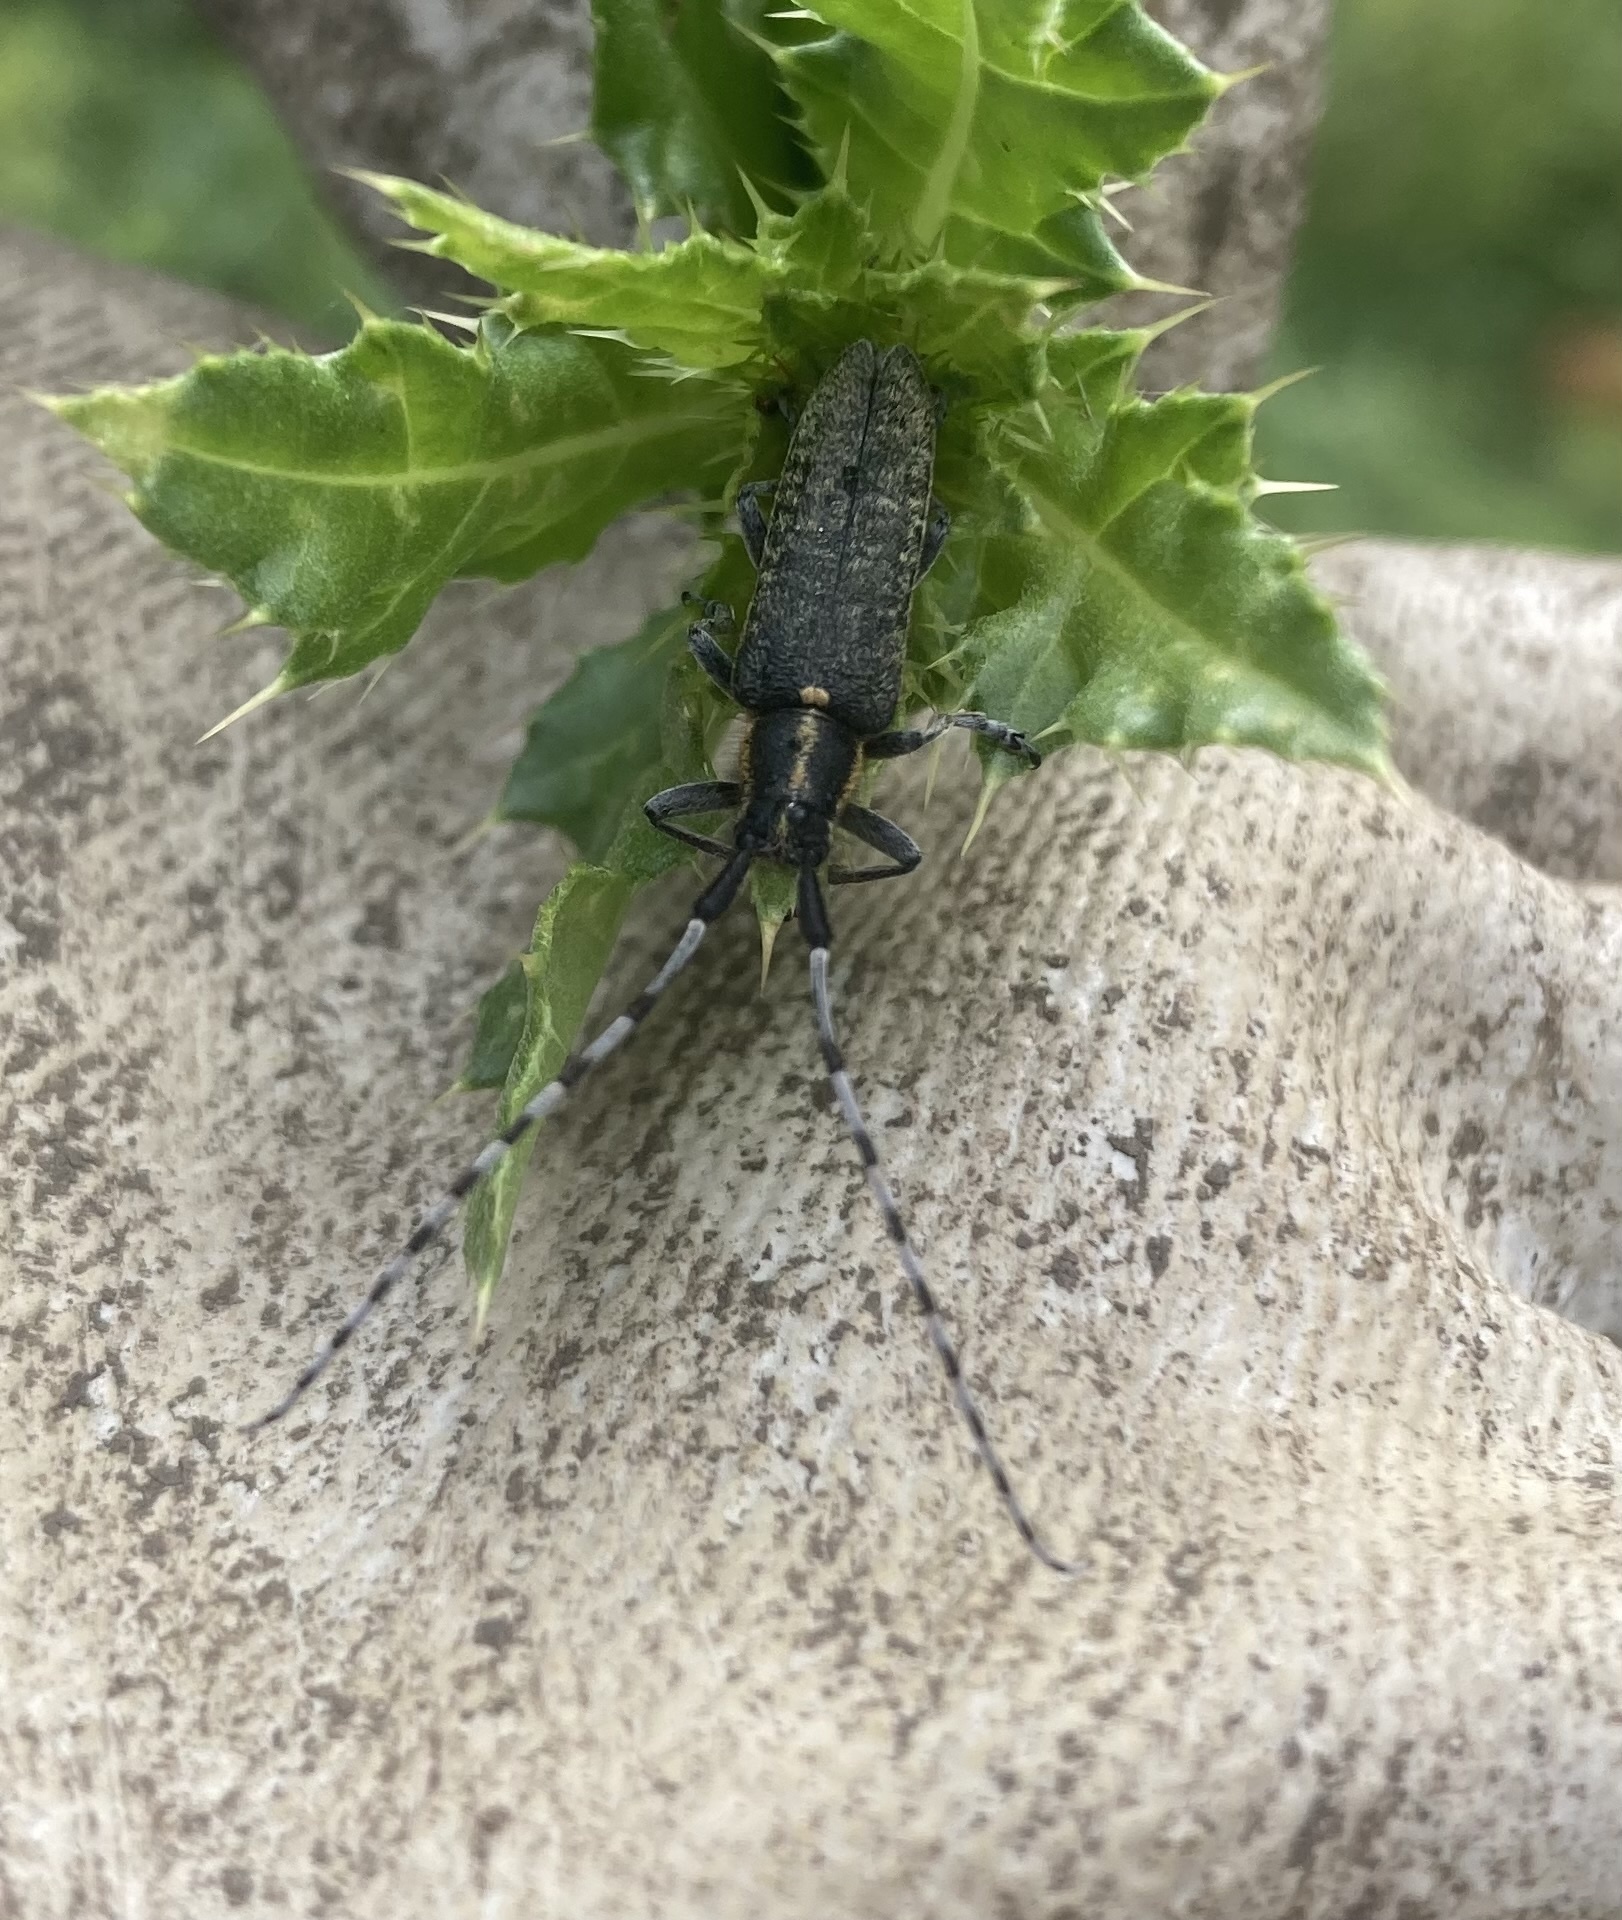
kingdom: Animalia
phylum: Arthropoda
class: Insecta
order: Coleoptera
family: Cerambycidae
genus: Agapanthia
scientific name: Agapanthia villosoviridescens
